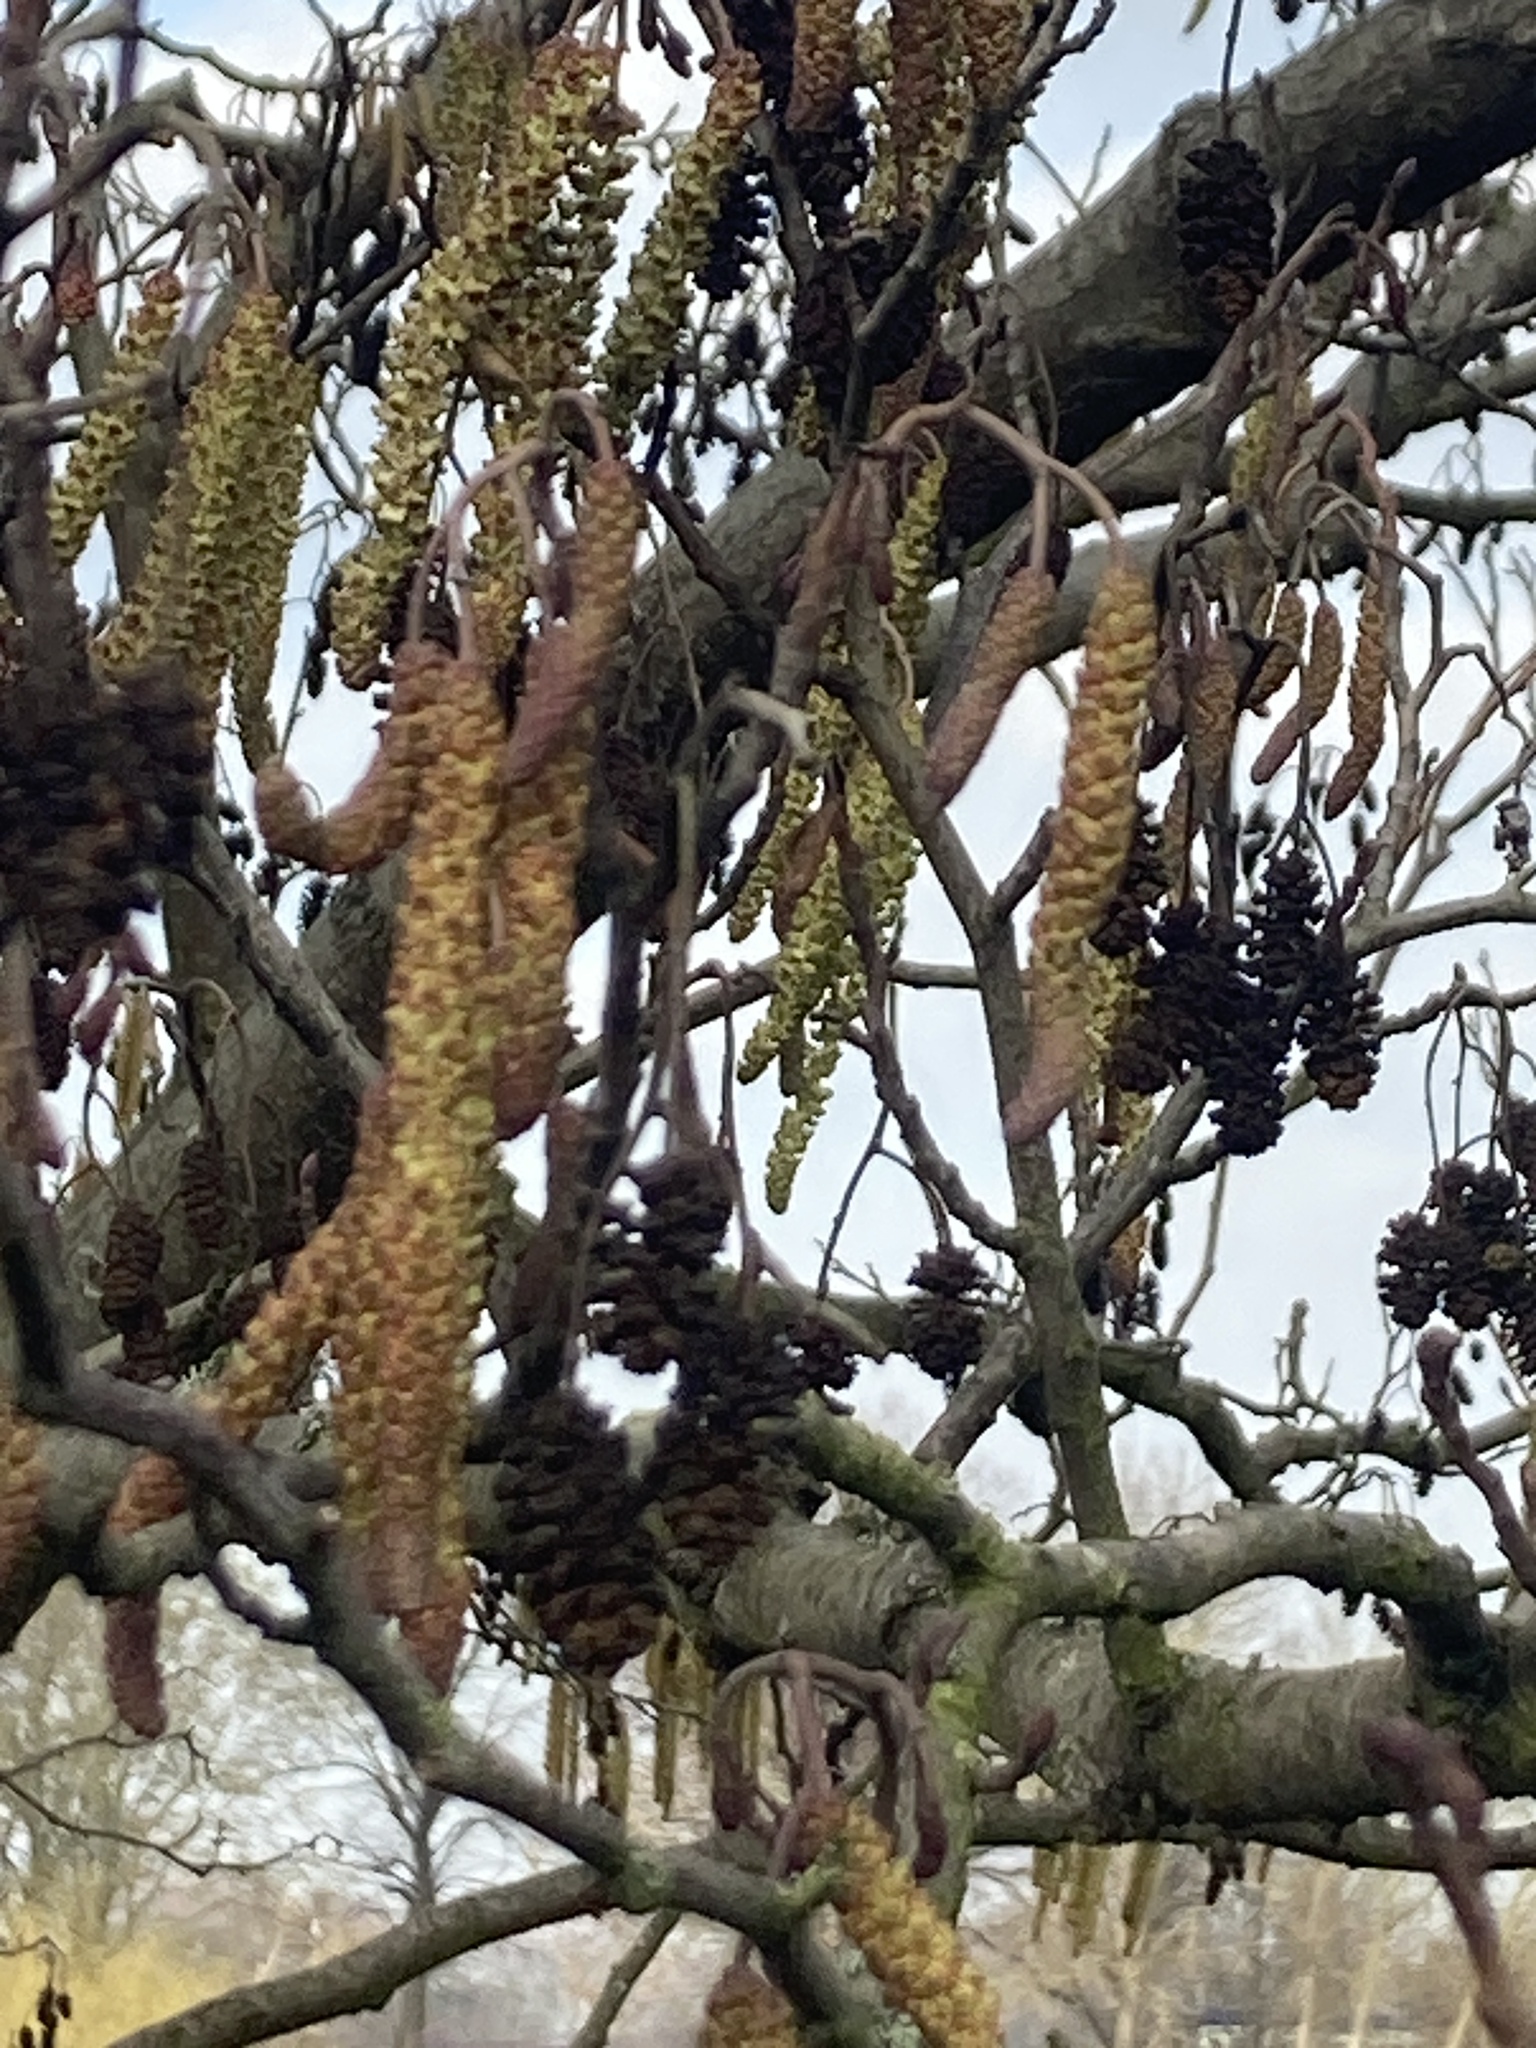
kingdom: Plantae
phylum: Tracheophyta
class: Magnoliopsida
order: Fagales
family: Betulaceae
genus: Alnus
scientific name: Alnus glutinosa
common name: Black alder
